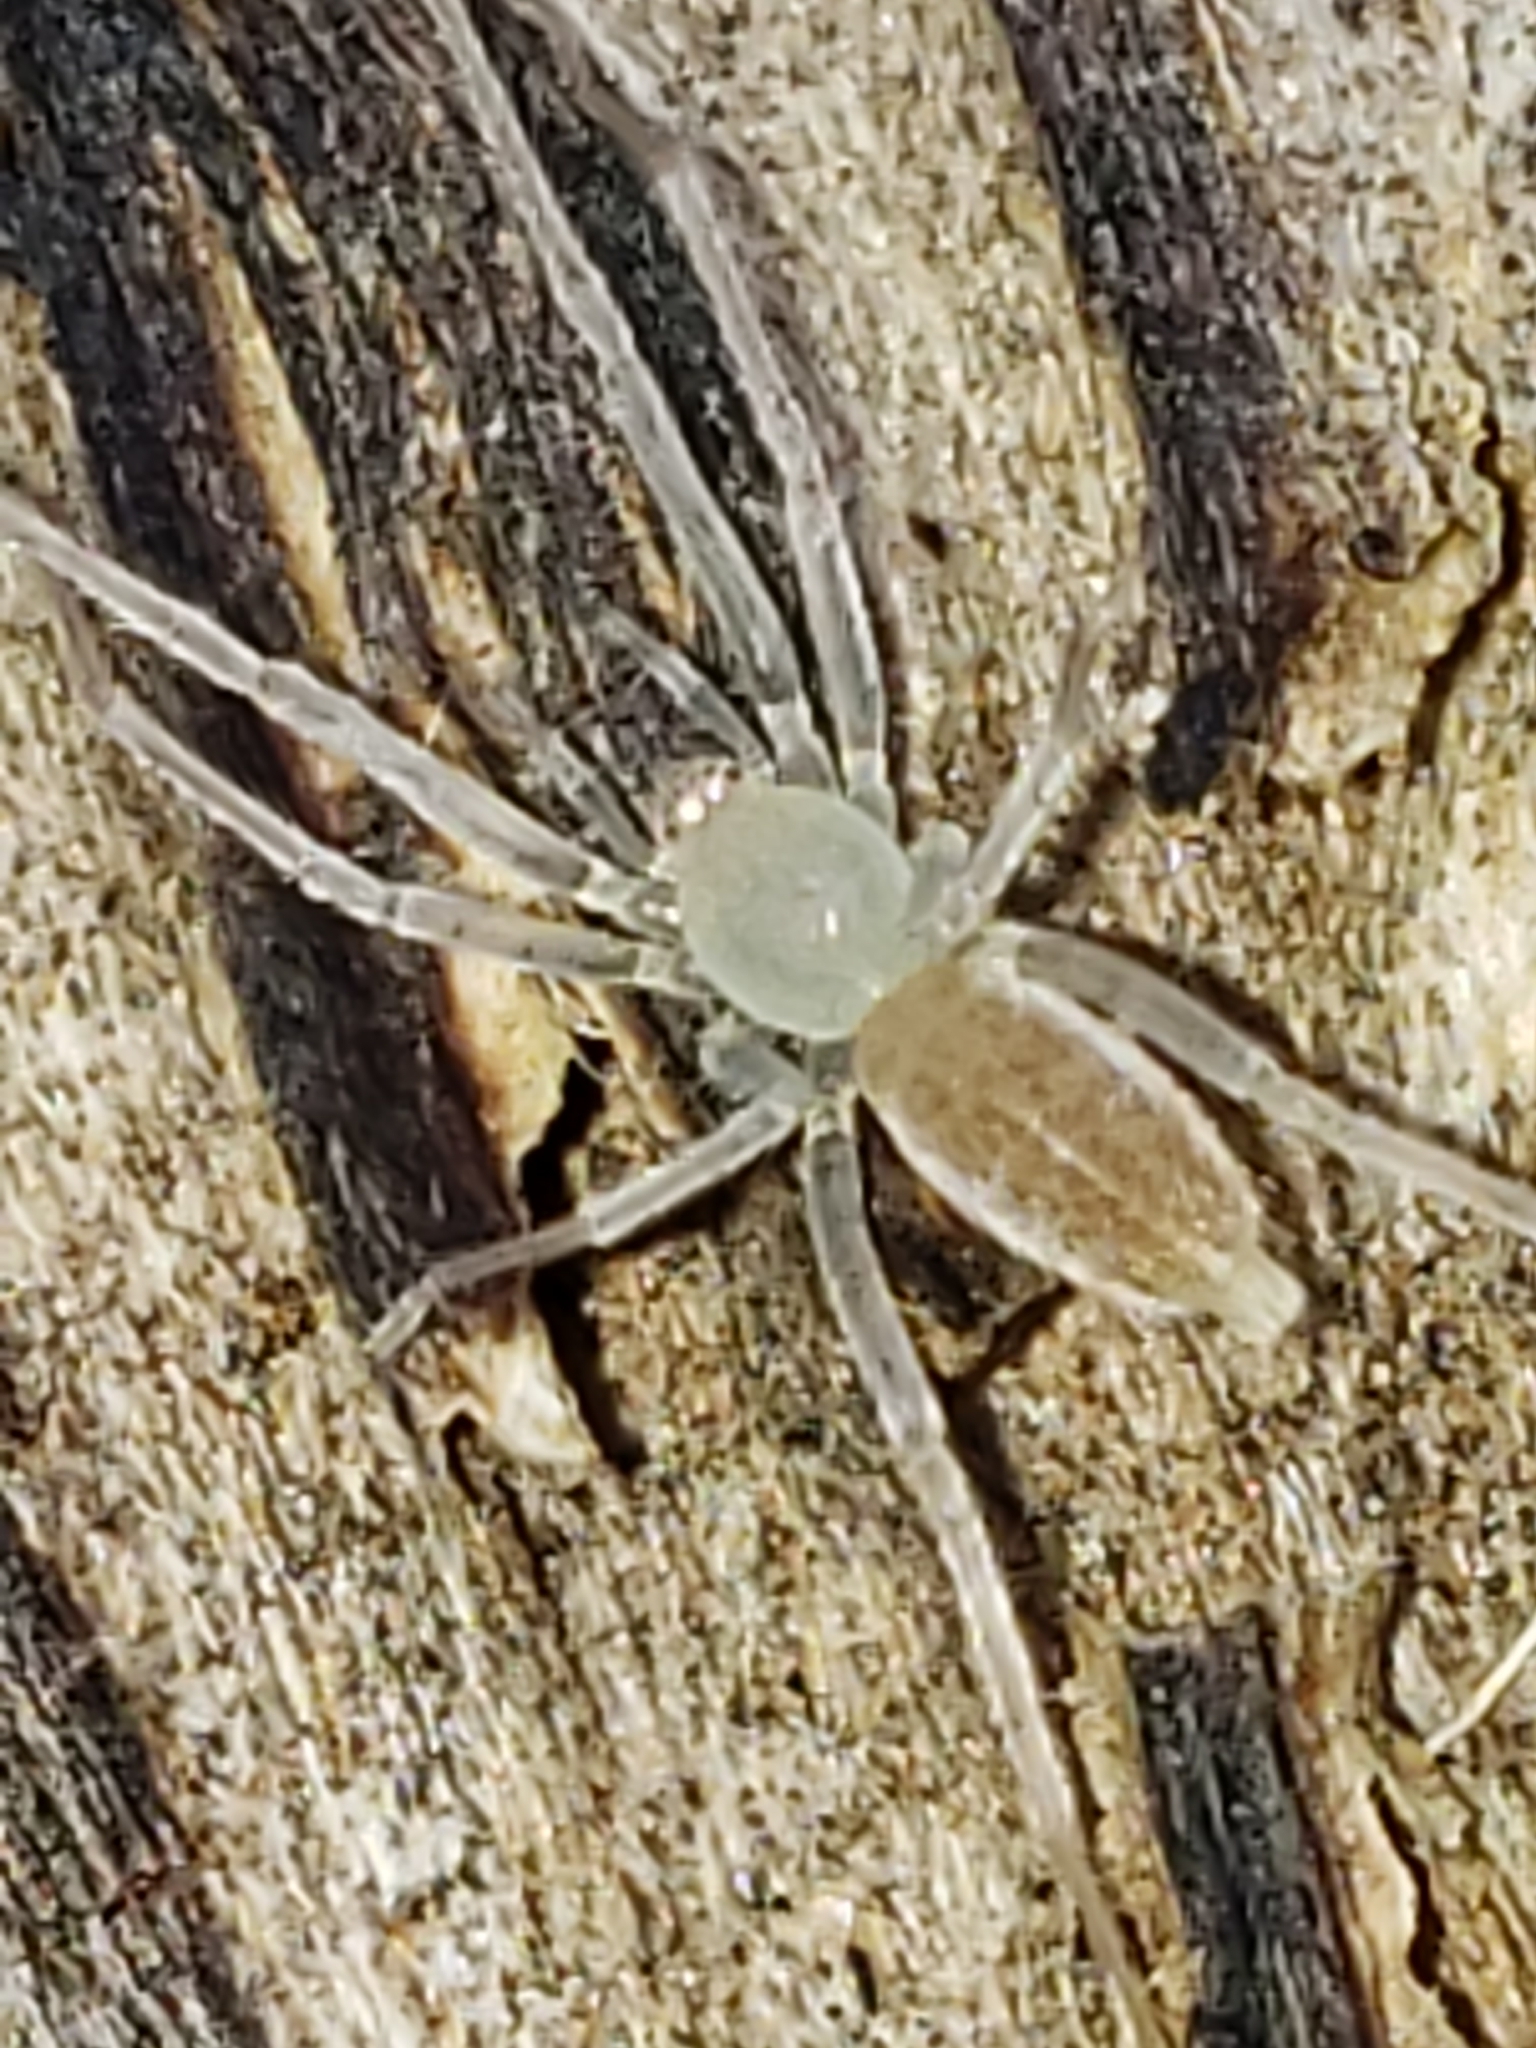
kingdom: Animalia
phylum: Arthropoda
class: Arachnida
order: Araneae
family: Anyphaenidae
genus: Wulfila
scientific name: Wulfila albens
